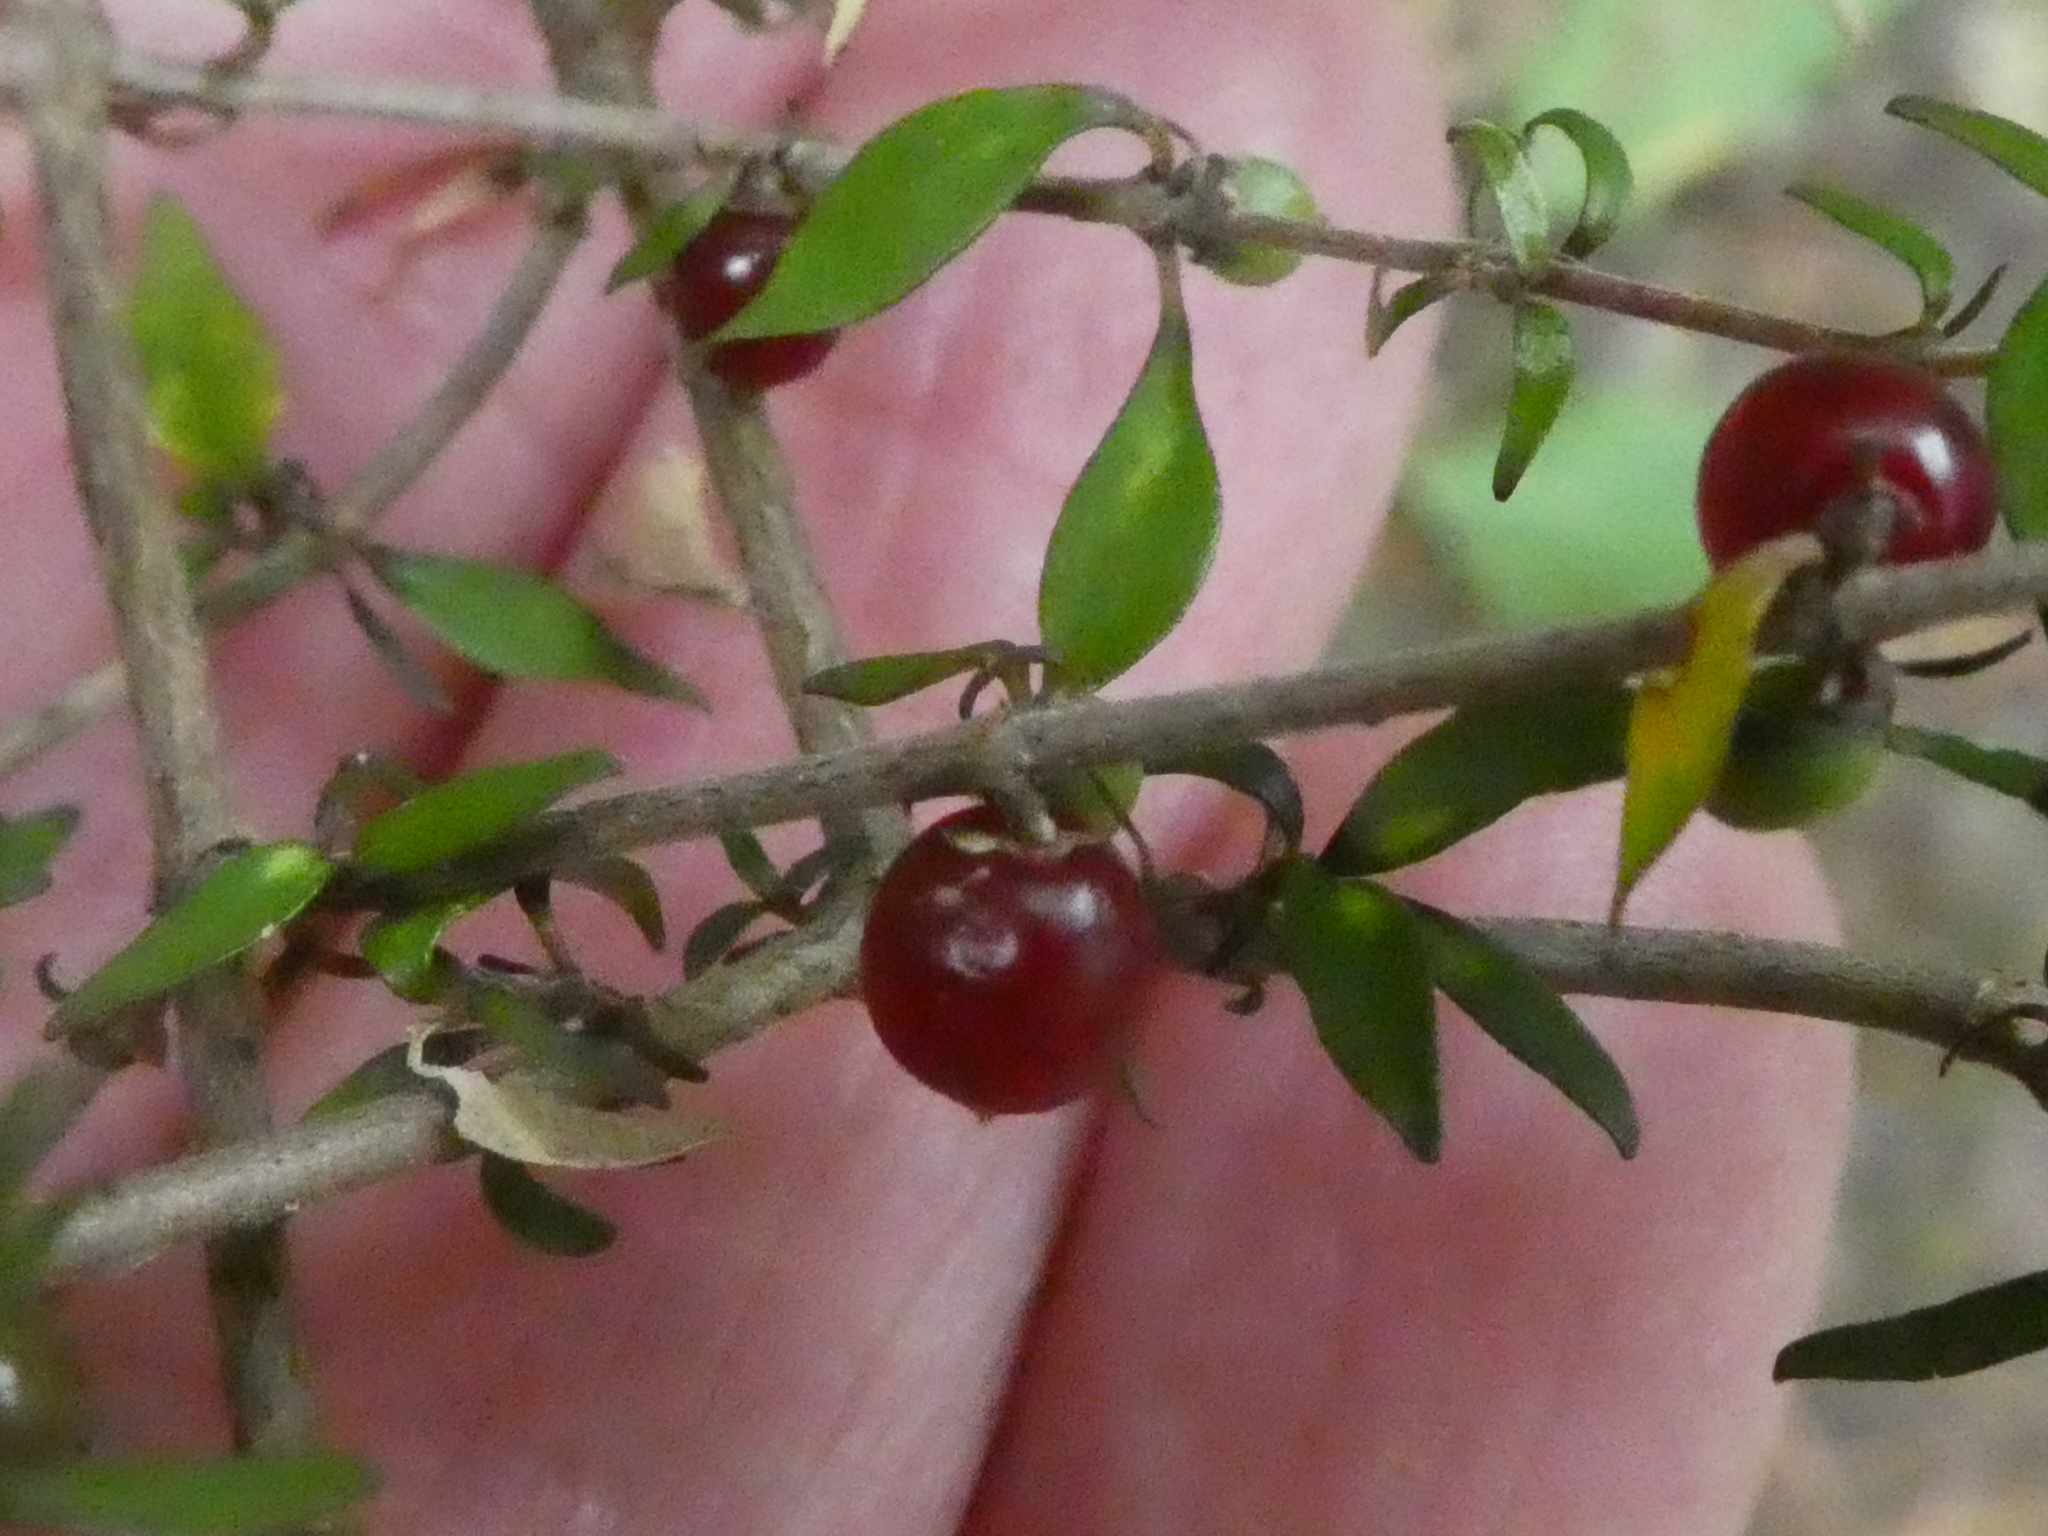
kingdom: Plantae
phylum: Tracheophyta
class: Magnoliopsida
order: Gentianales
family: Rubiaceae
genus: Coprosma
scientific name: Coprosma rhamnoides
